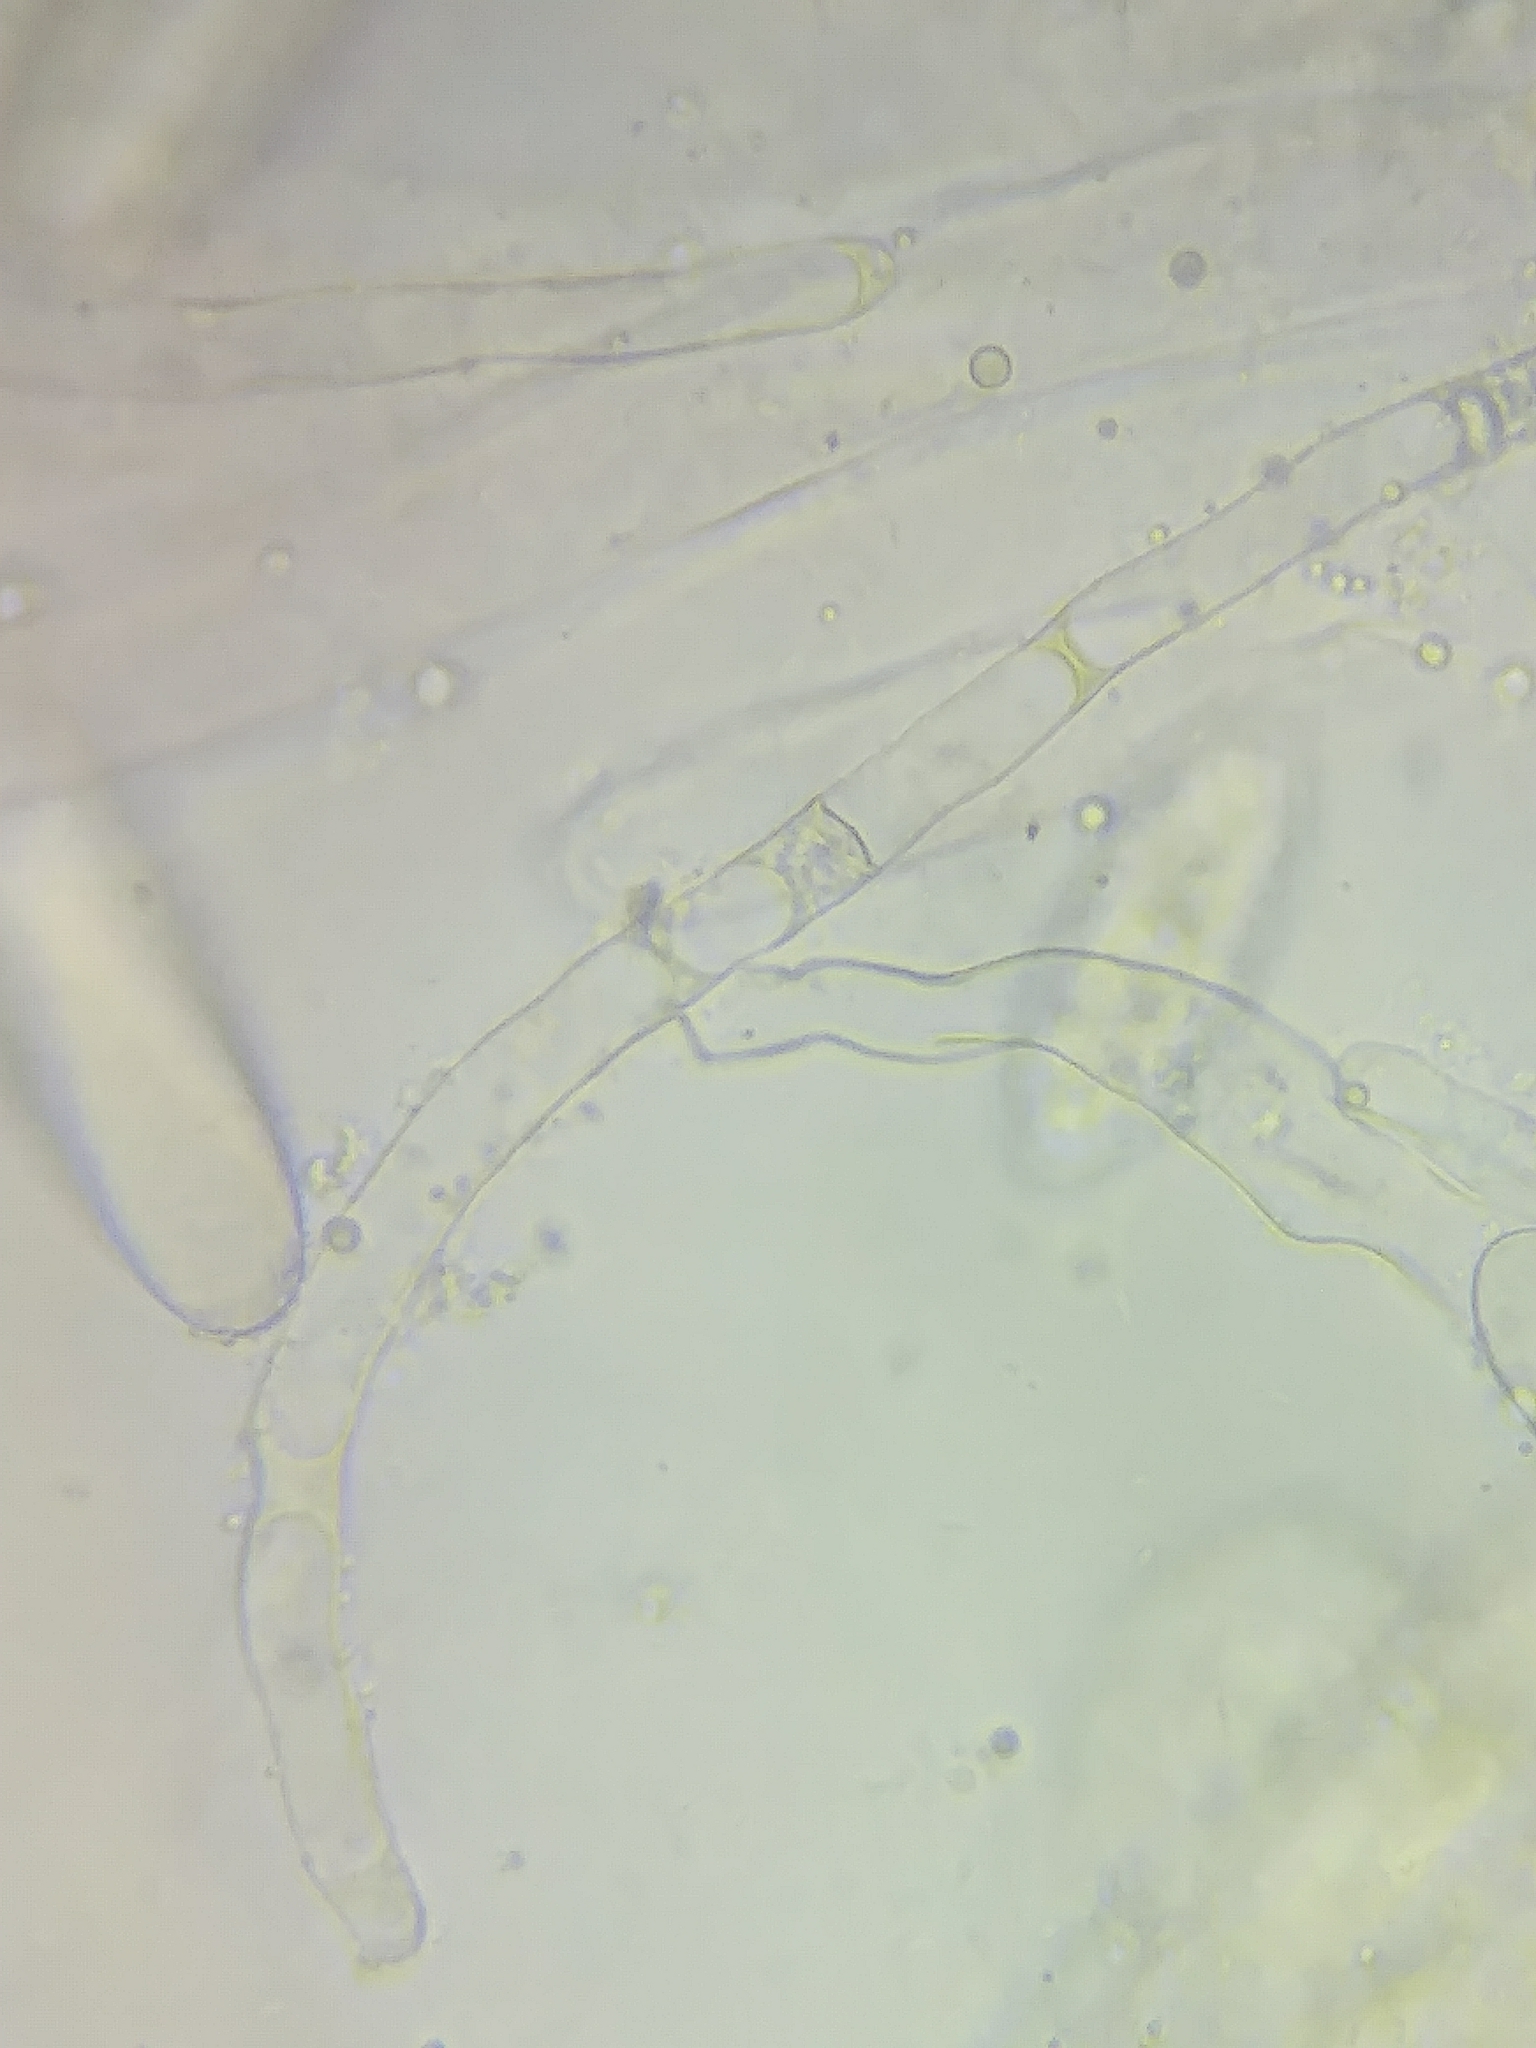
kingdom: Fungi
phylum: Ascomycota
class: Pezizomycetes
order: Pezizales
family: Morchellaceae
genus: Verpa
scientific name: Verpa bohemica
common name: Wrinkled thimble morel
